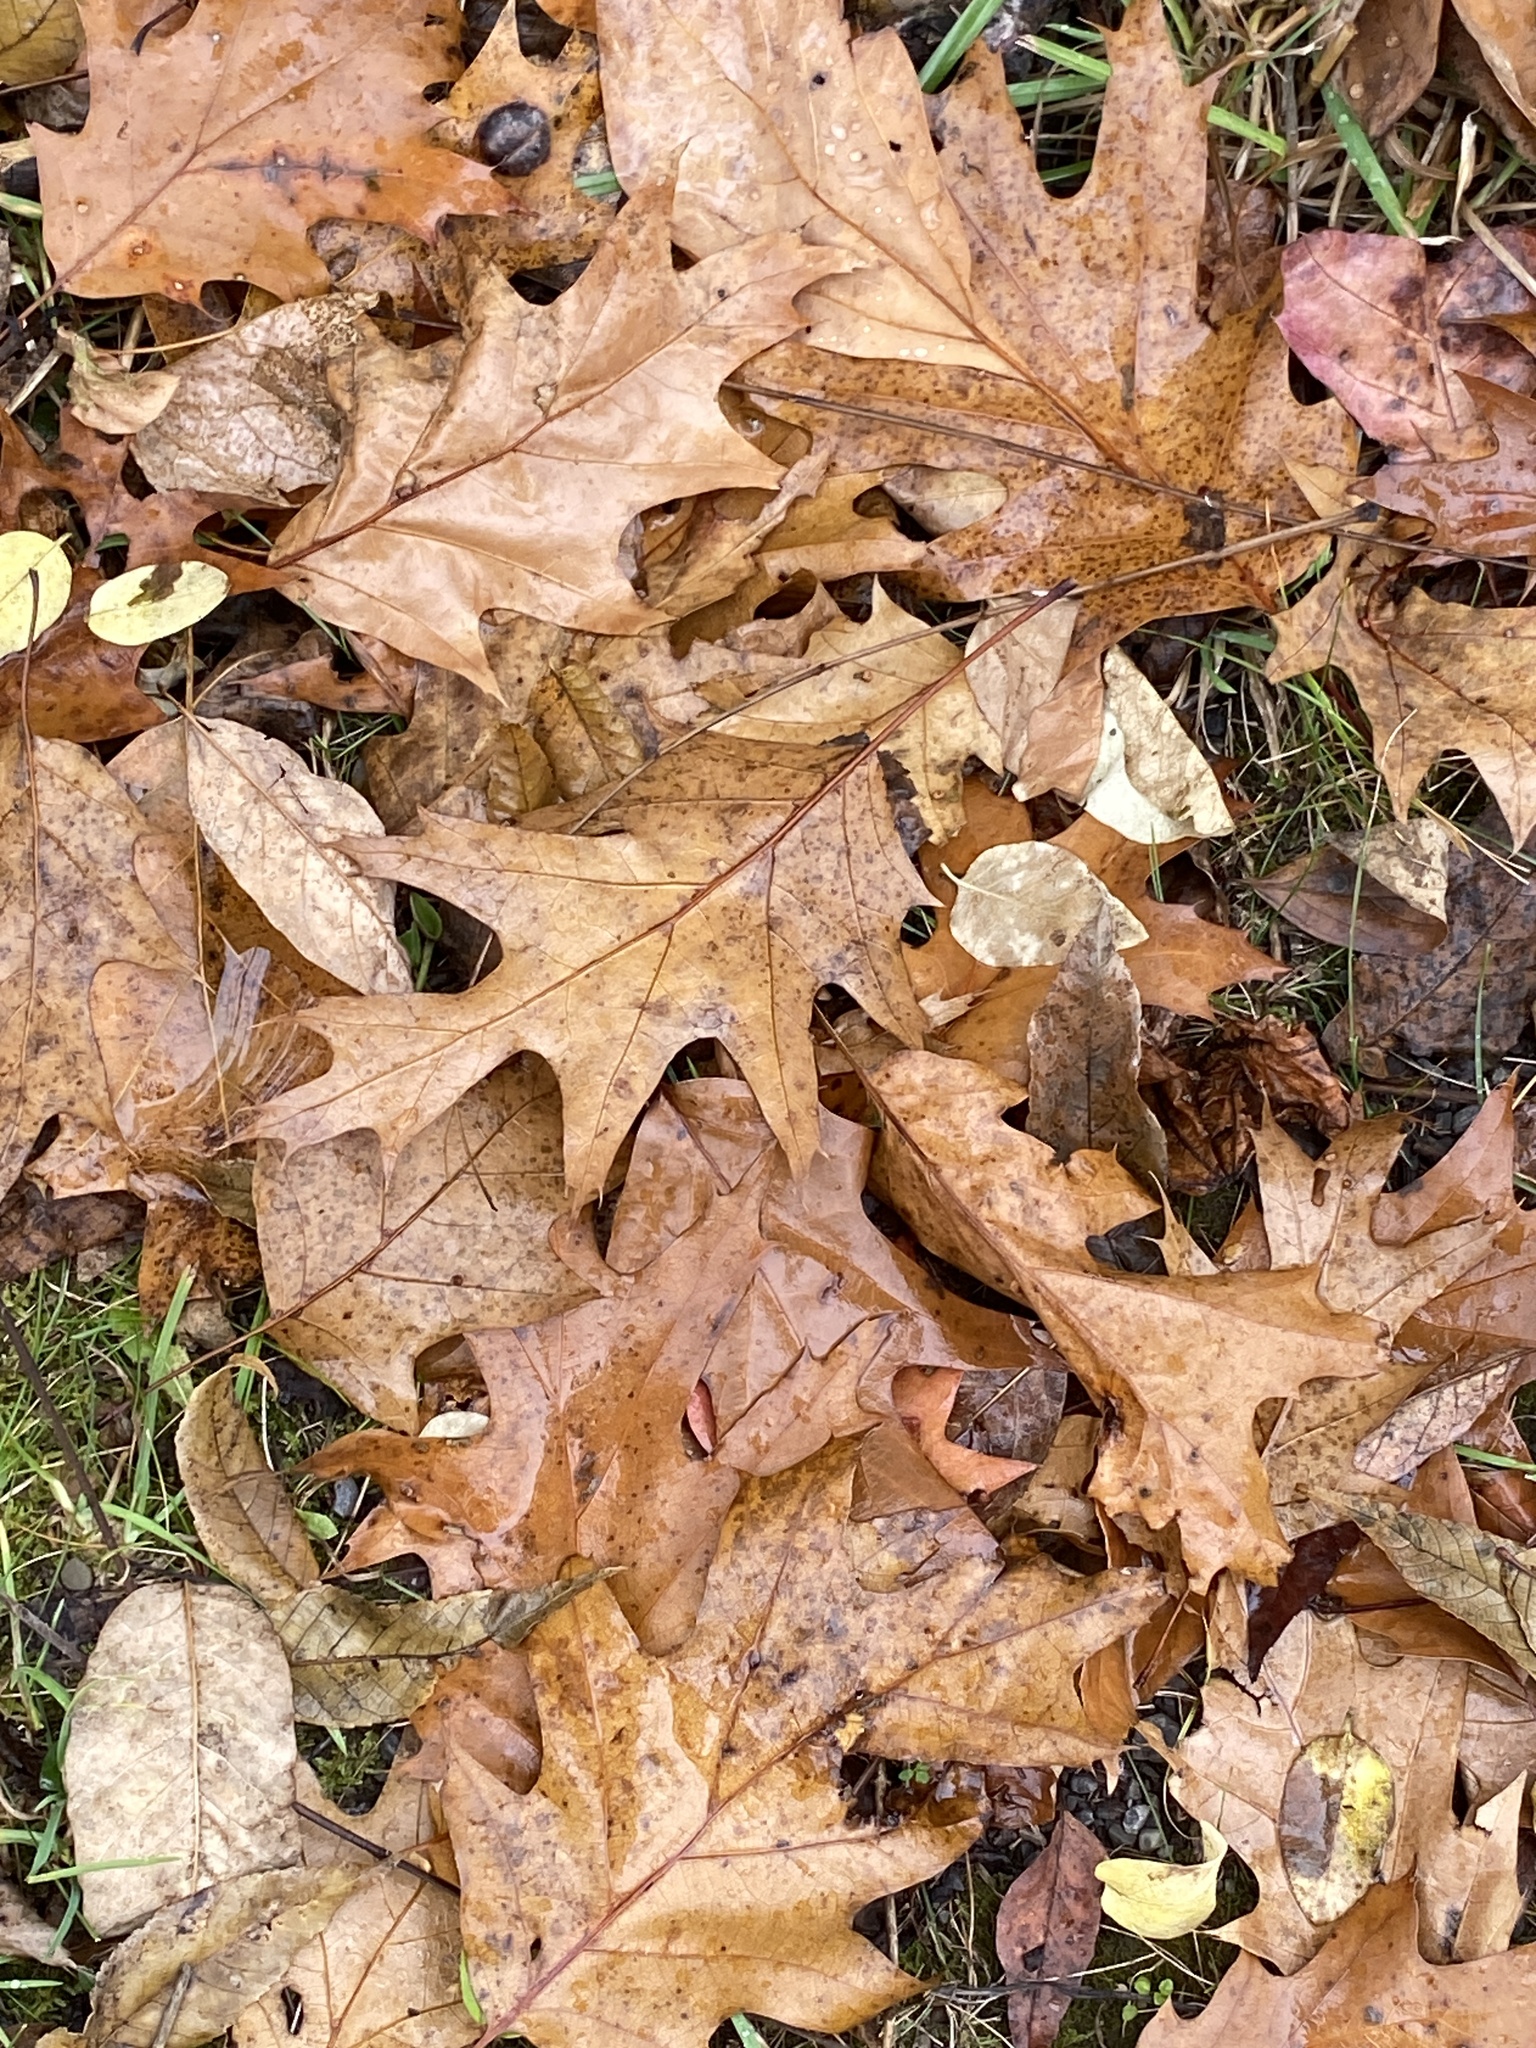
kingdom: Plantae
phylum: Tracheophyta
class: Magnoliopsida
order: Fagales
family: Fagaceae
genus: Quercus
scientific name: Quercus rubra
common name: Red oak
